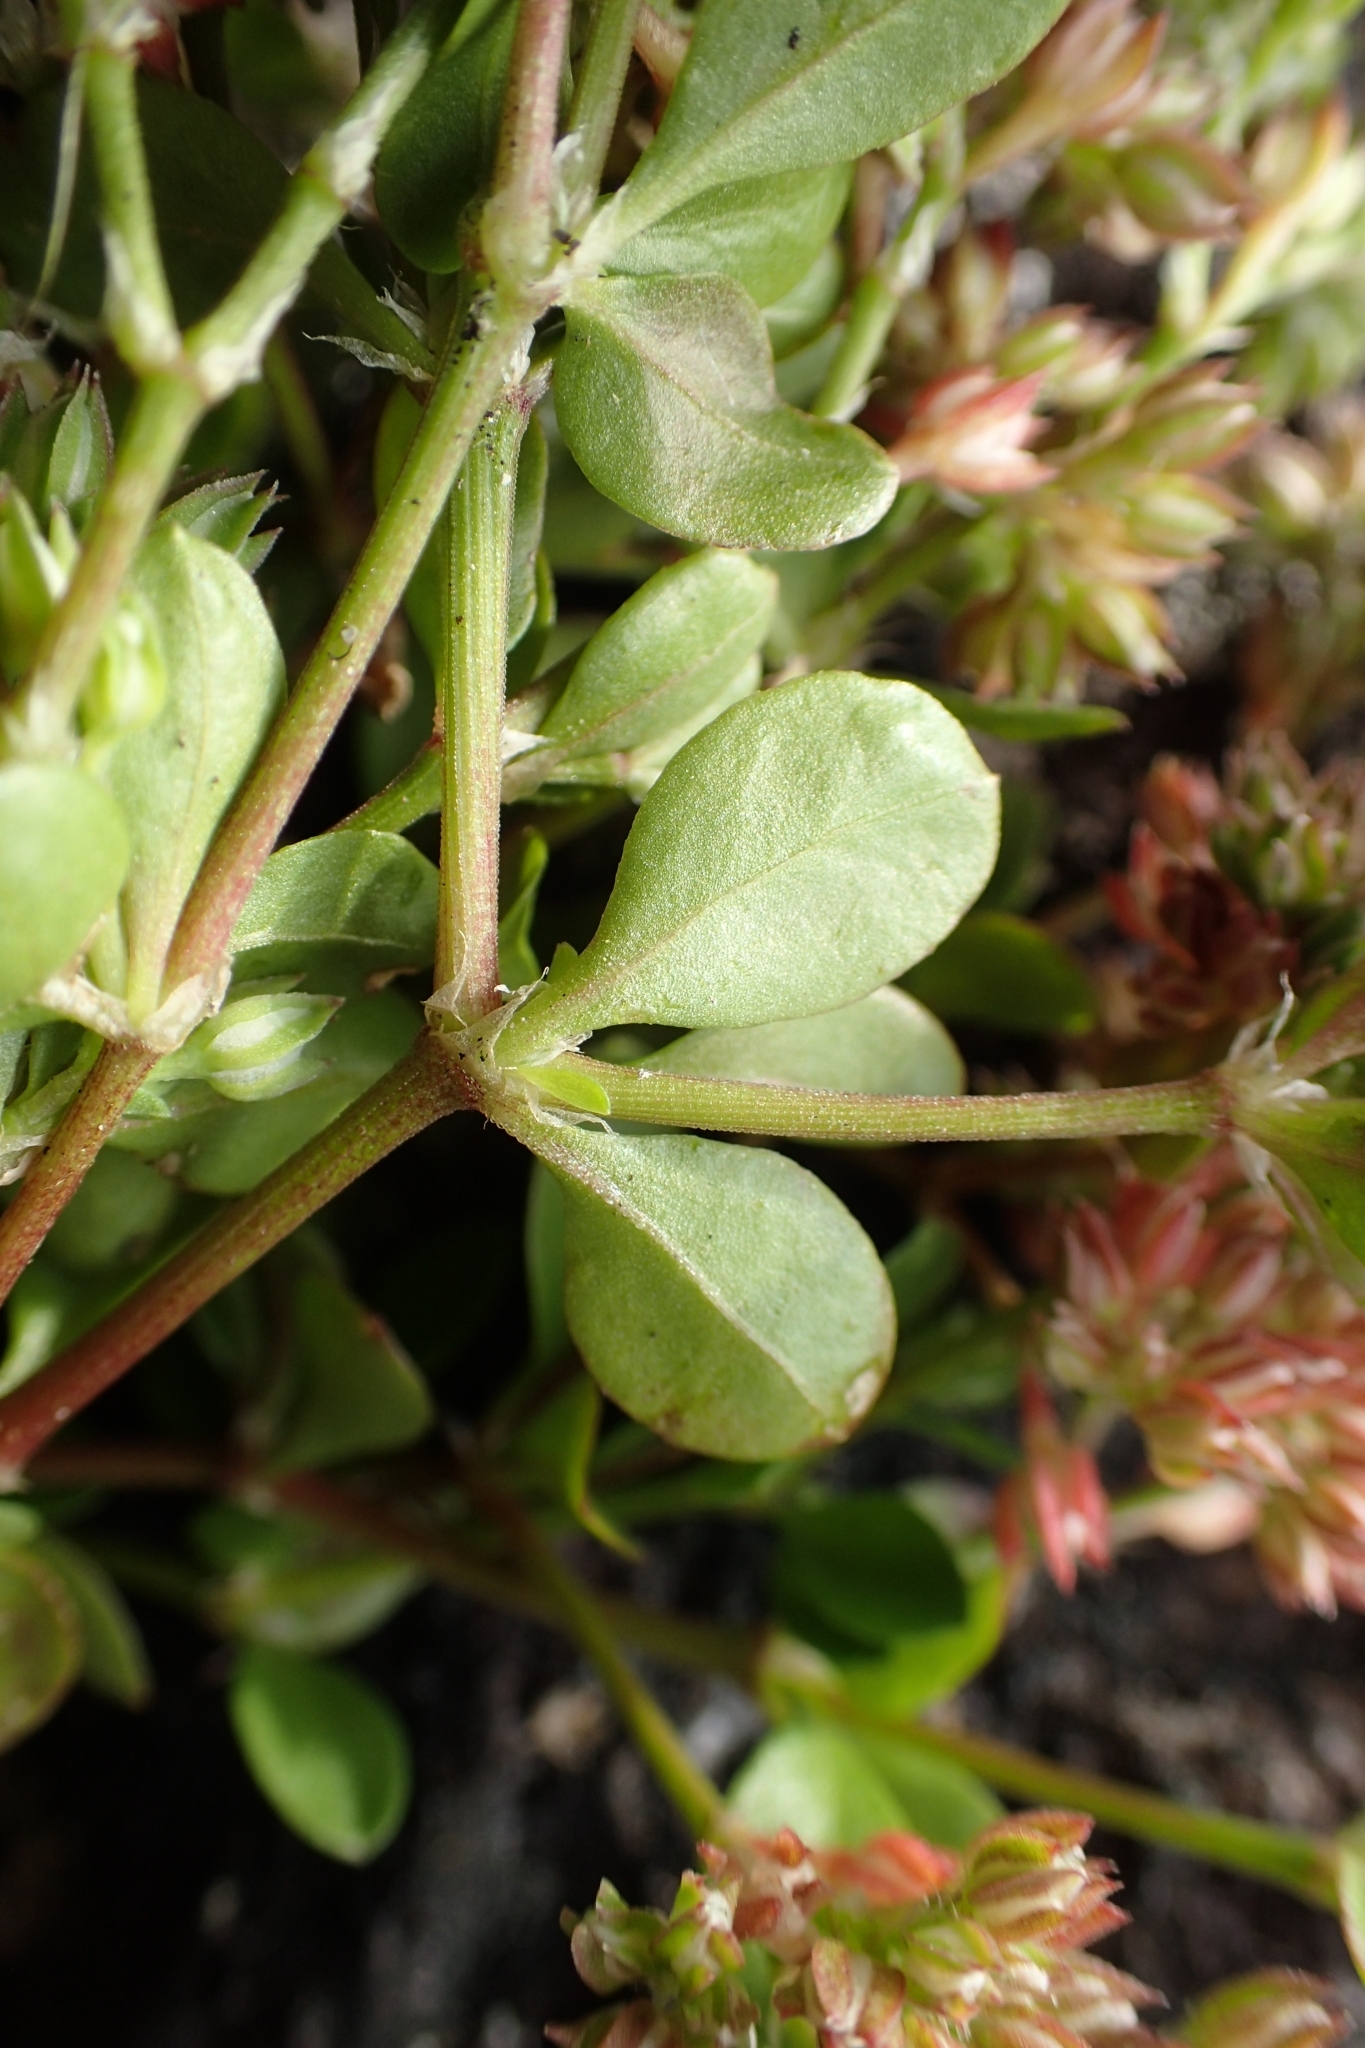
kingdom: Plantae
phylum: Tracheophyta
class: Magnoliopsida
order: Caryophyllales
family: Caryophyllaceae
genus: Polycarpon
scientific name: Polycarpon tetraphyllum
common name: Four-leaved all-seed
